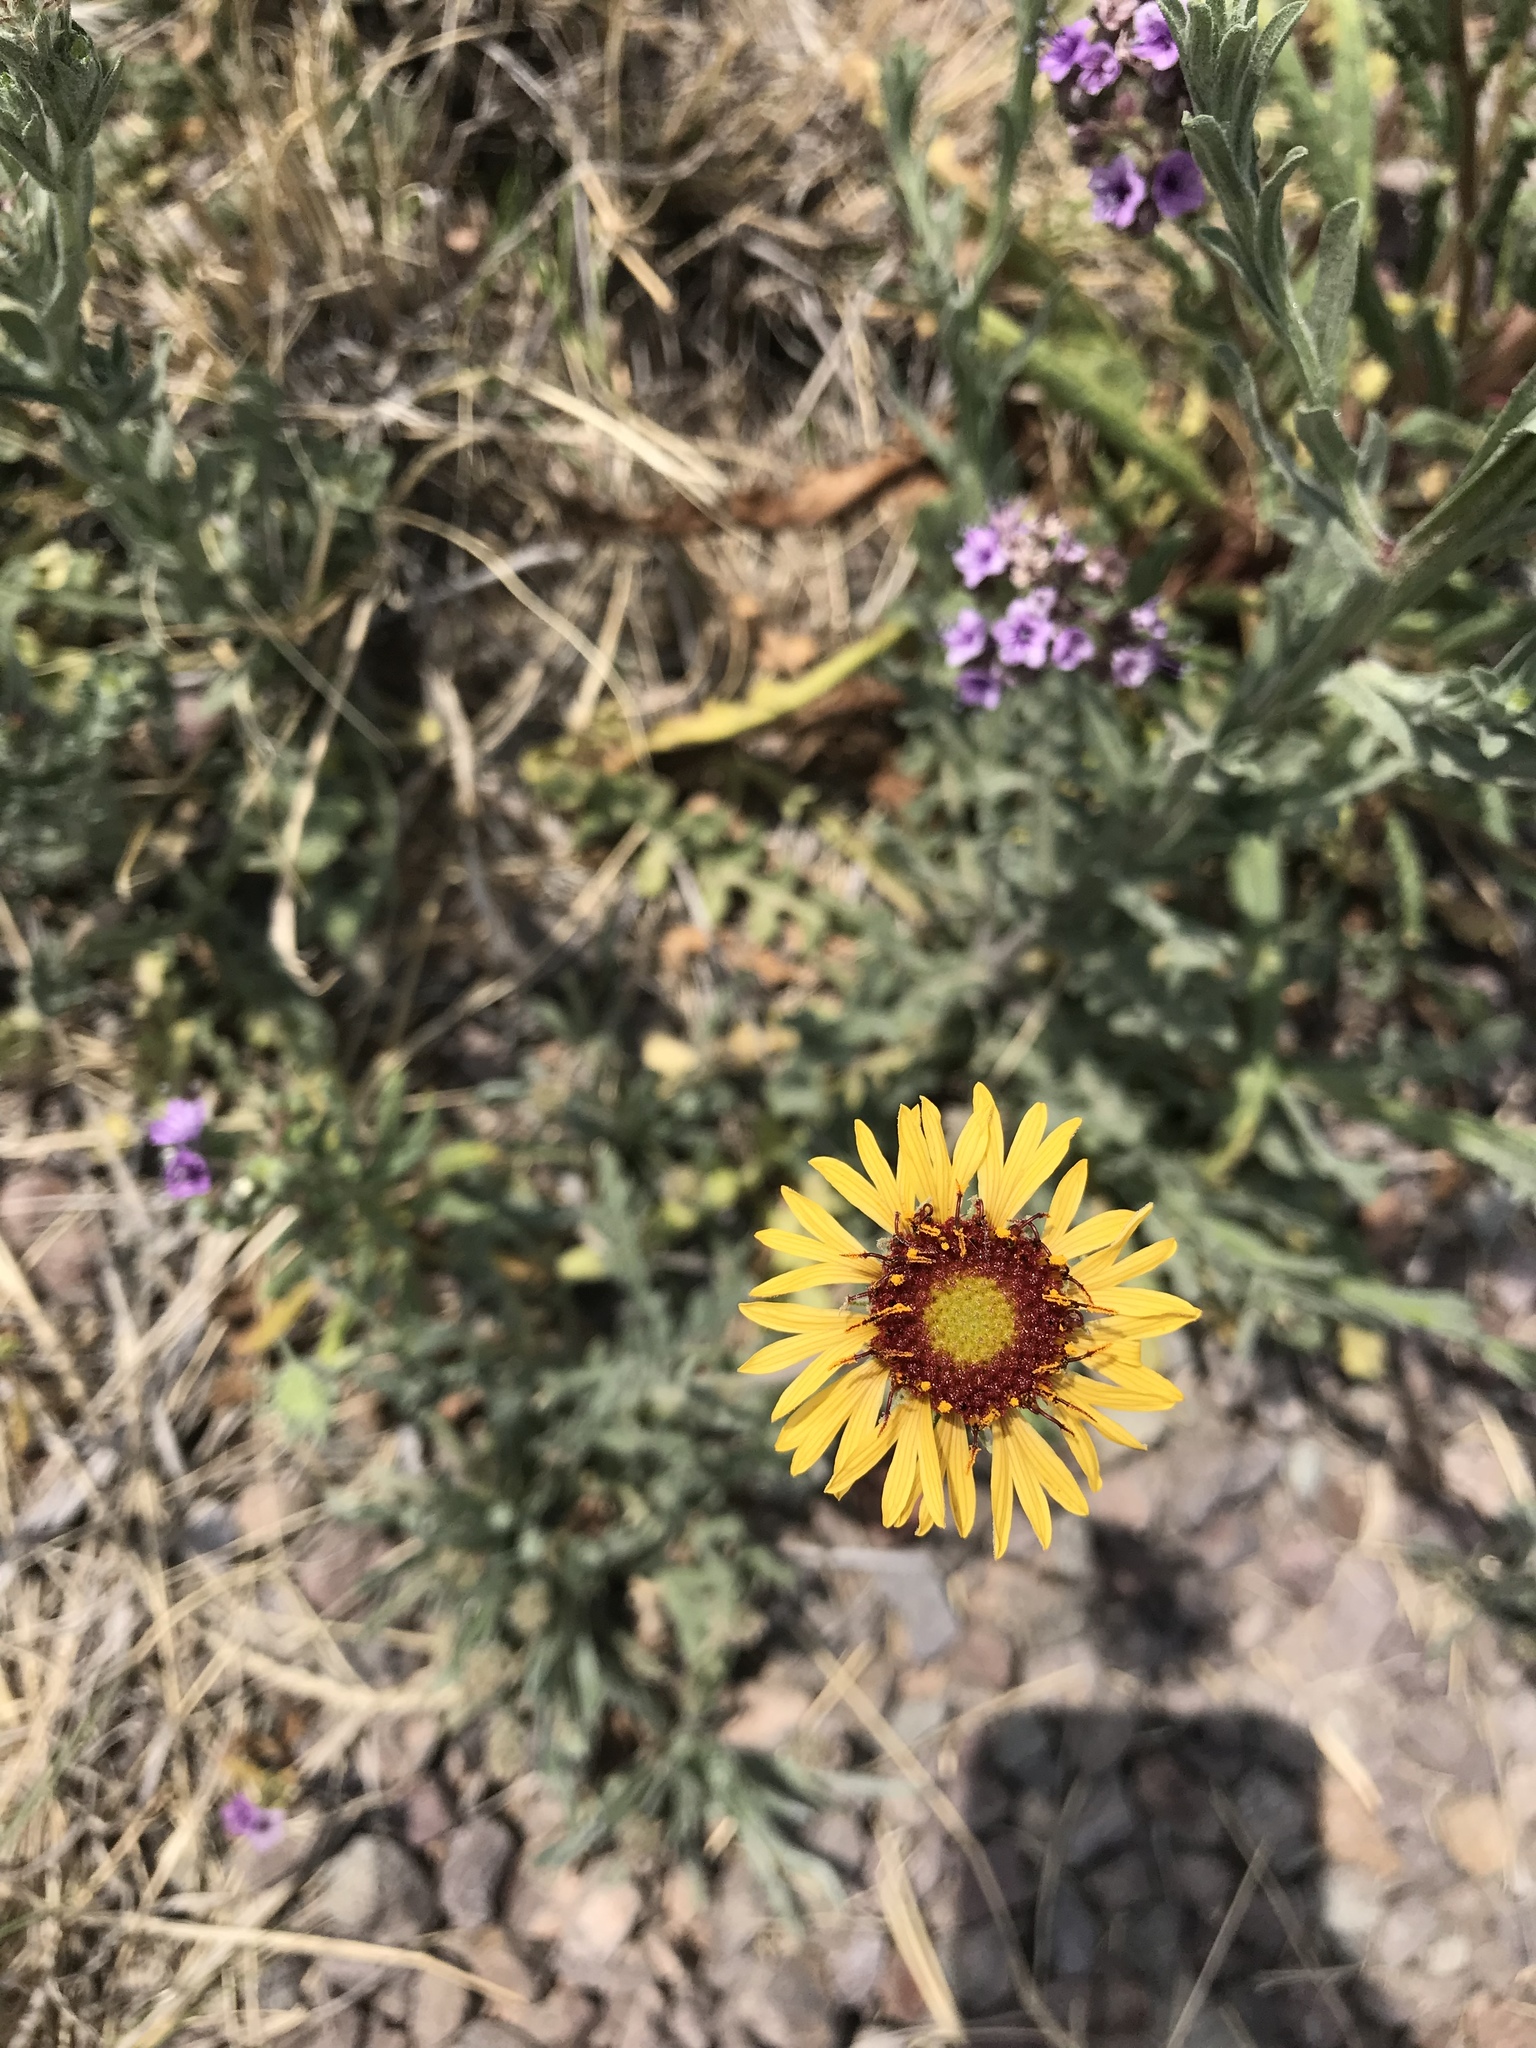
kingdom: Plantae
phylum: Tracheophyta
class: Magnoliopsida
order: Asterales
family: Asteraceae
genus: Gaillardia
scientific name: Gaillardia pinnatifida
